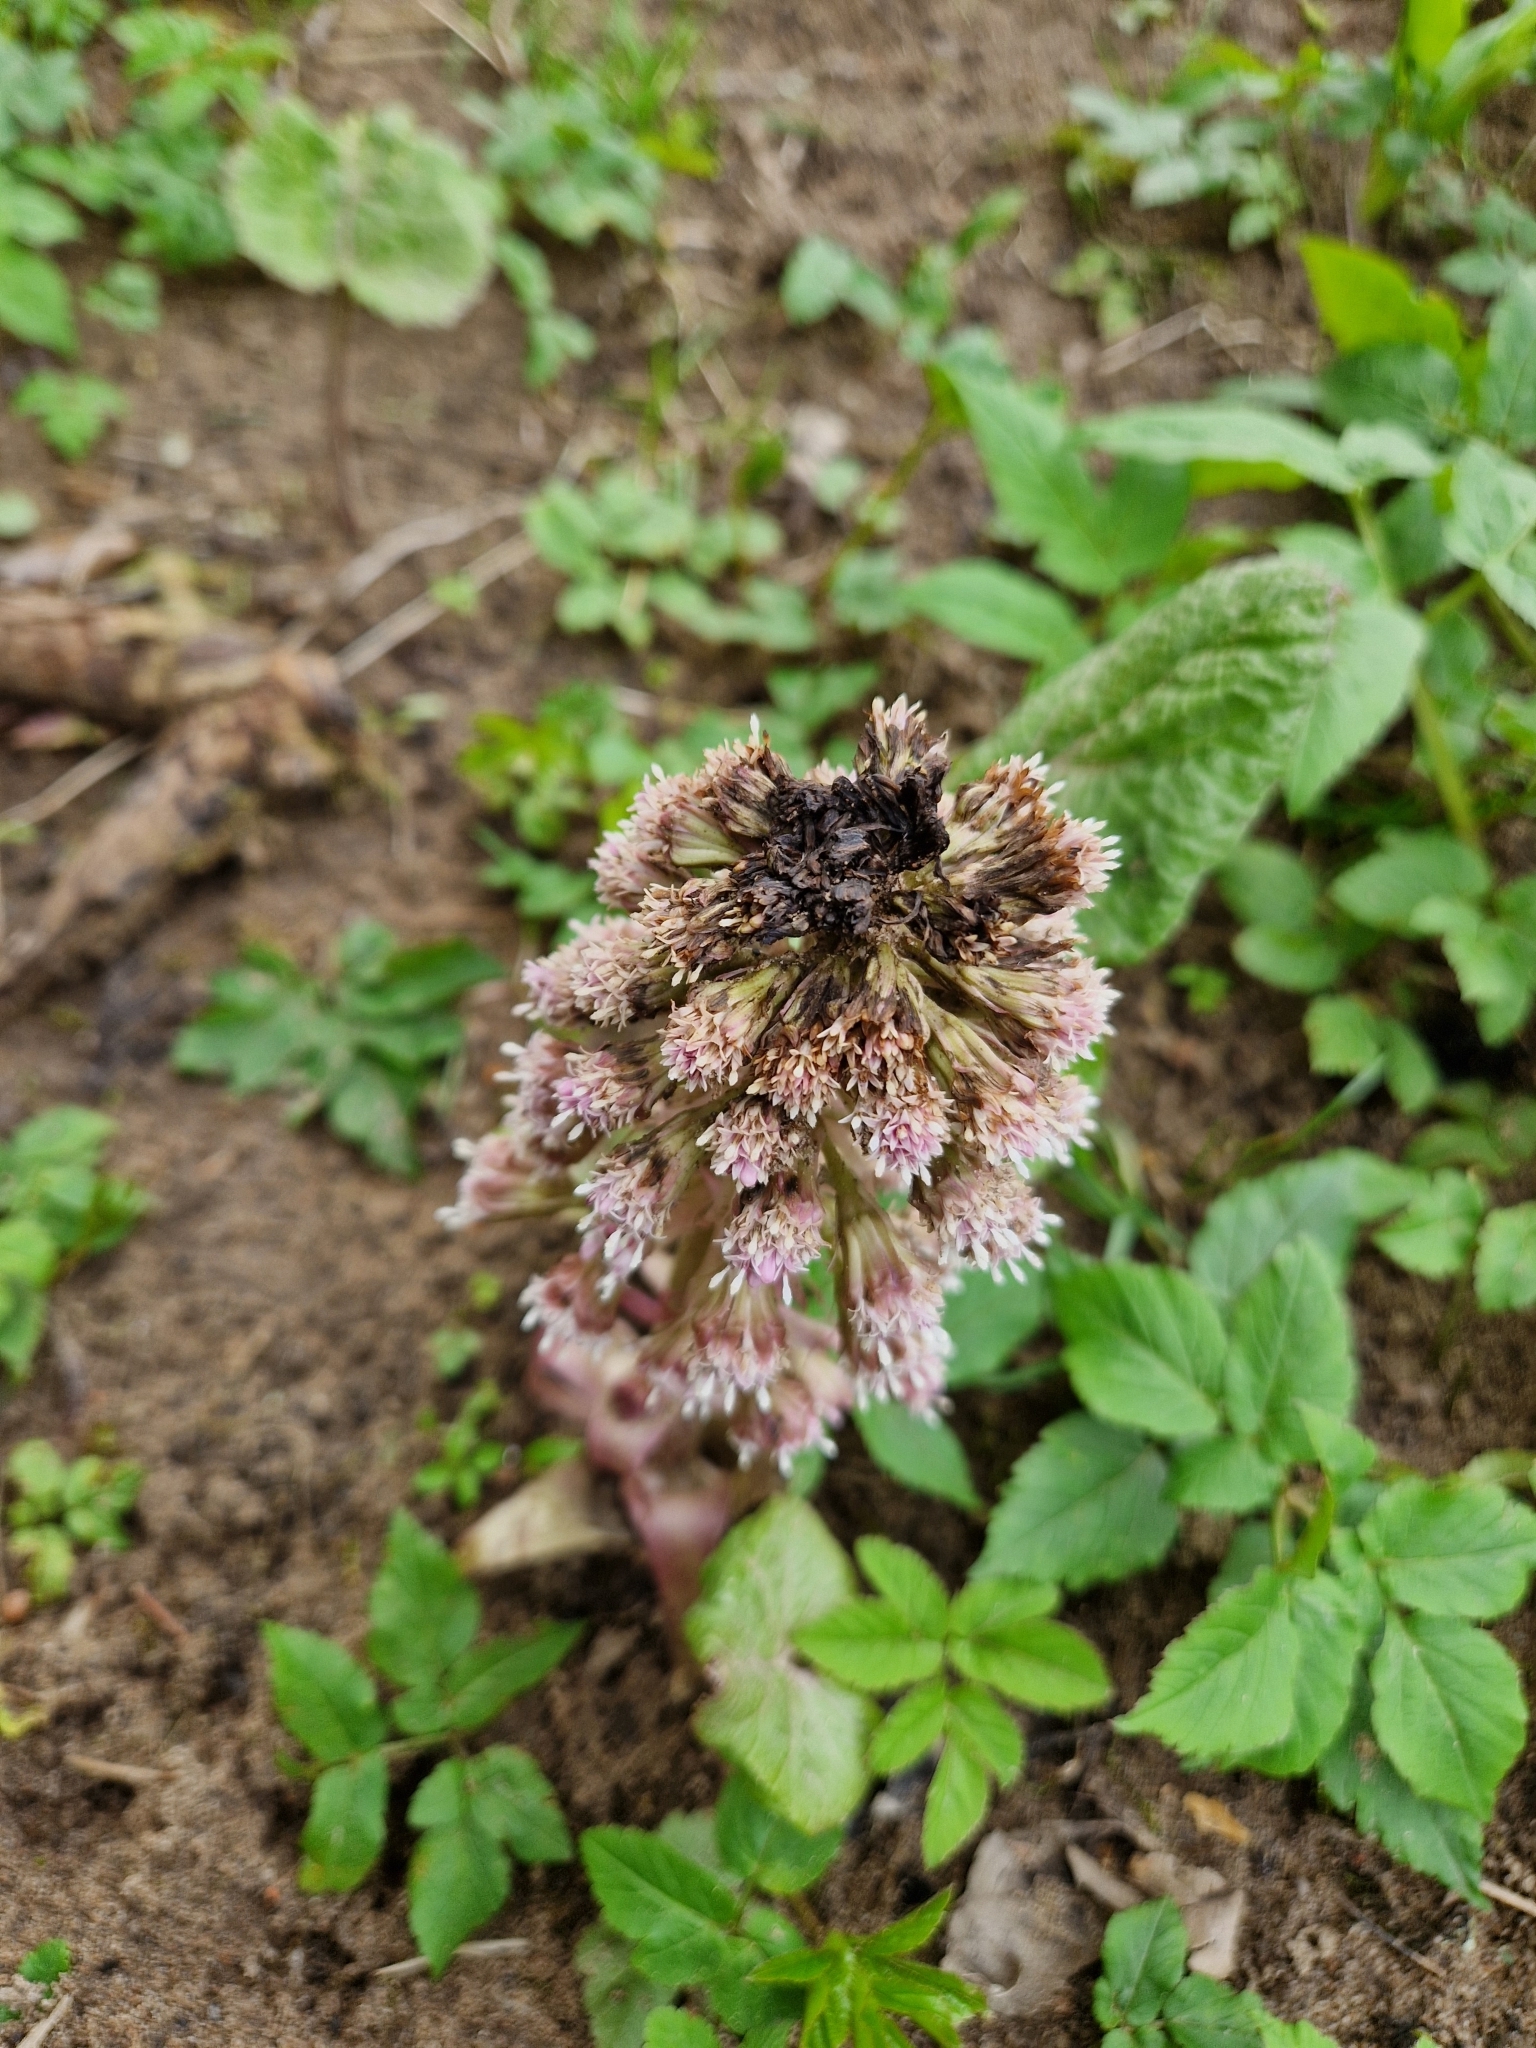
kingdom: Plantae
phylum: Tracheophyta
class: Magnoliopsida
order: Asterales
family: Asteraceae
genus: Petasites
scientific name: Petasites hybridus
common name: Butterbur
